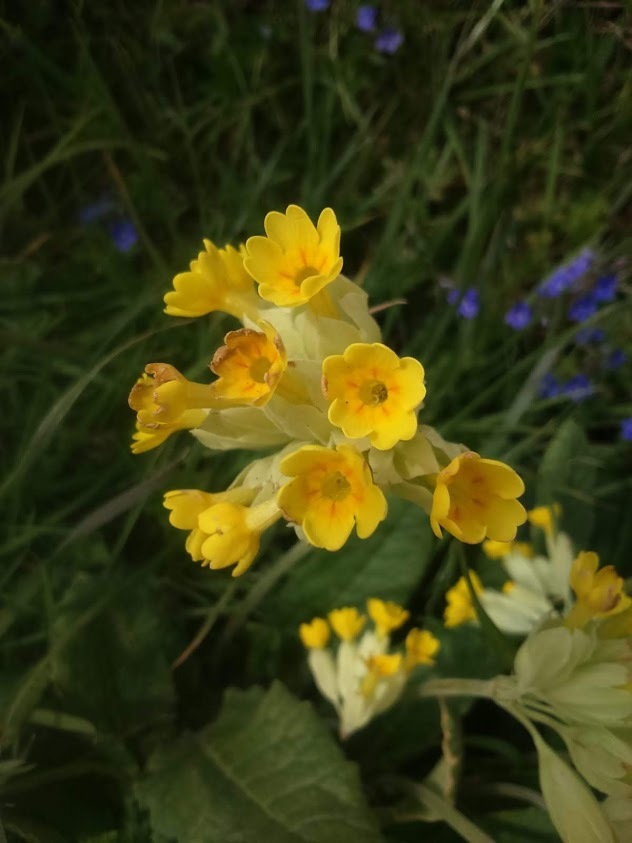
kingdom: Plantae
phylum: Tracheophyta
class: Magnoliopsida
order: Ericales
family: Primulaceae
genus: Primula
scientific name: Primula veris
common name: Cowslip
